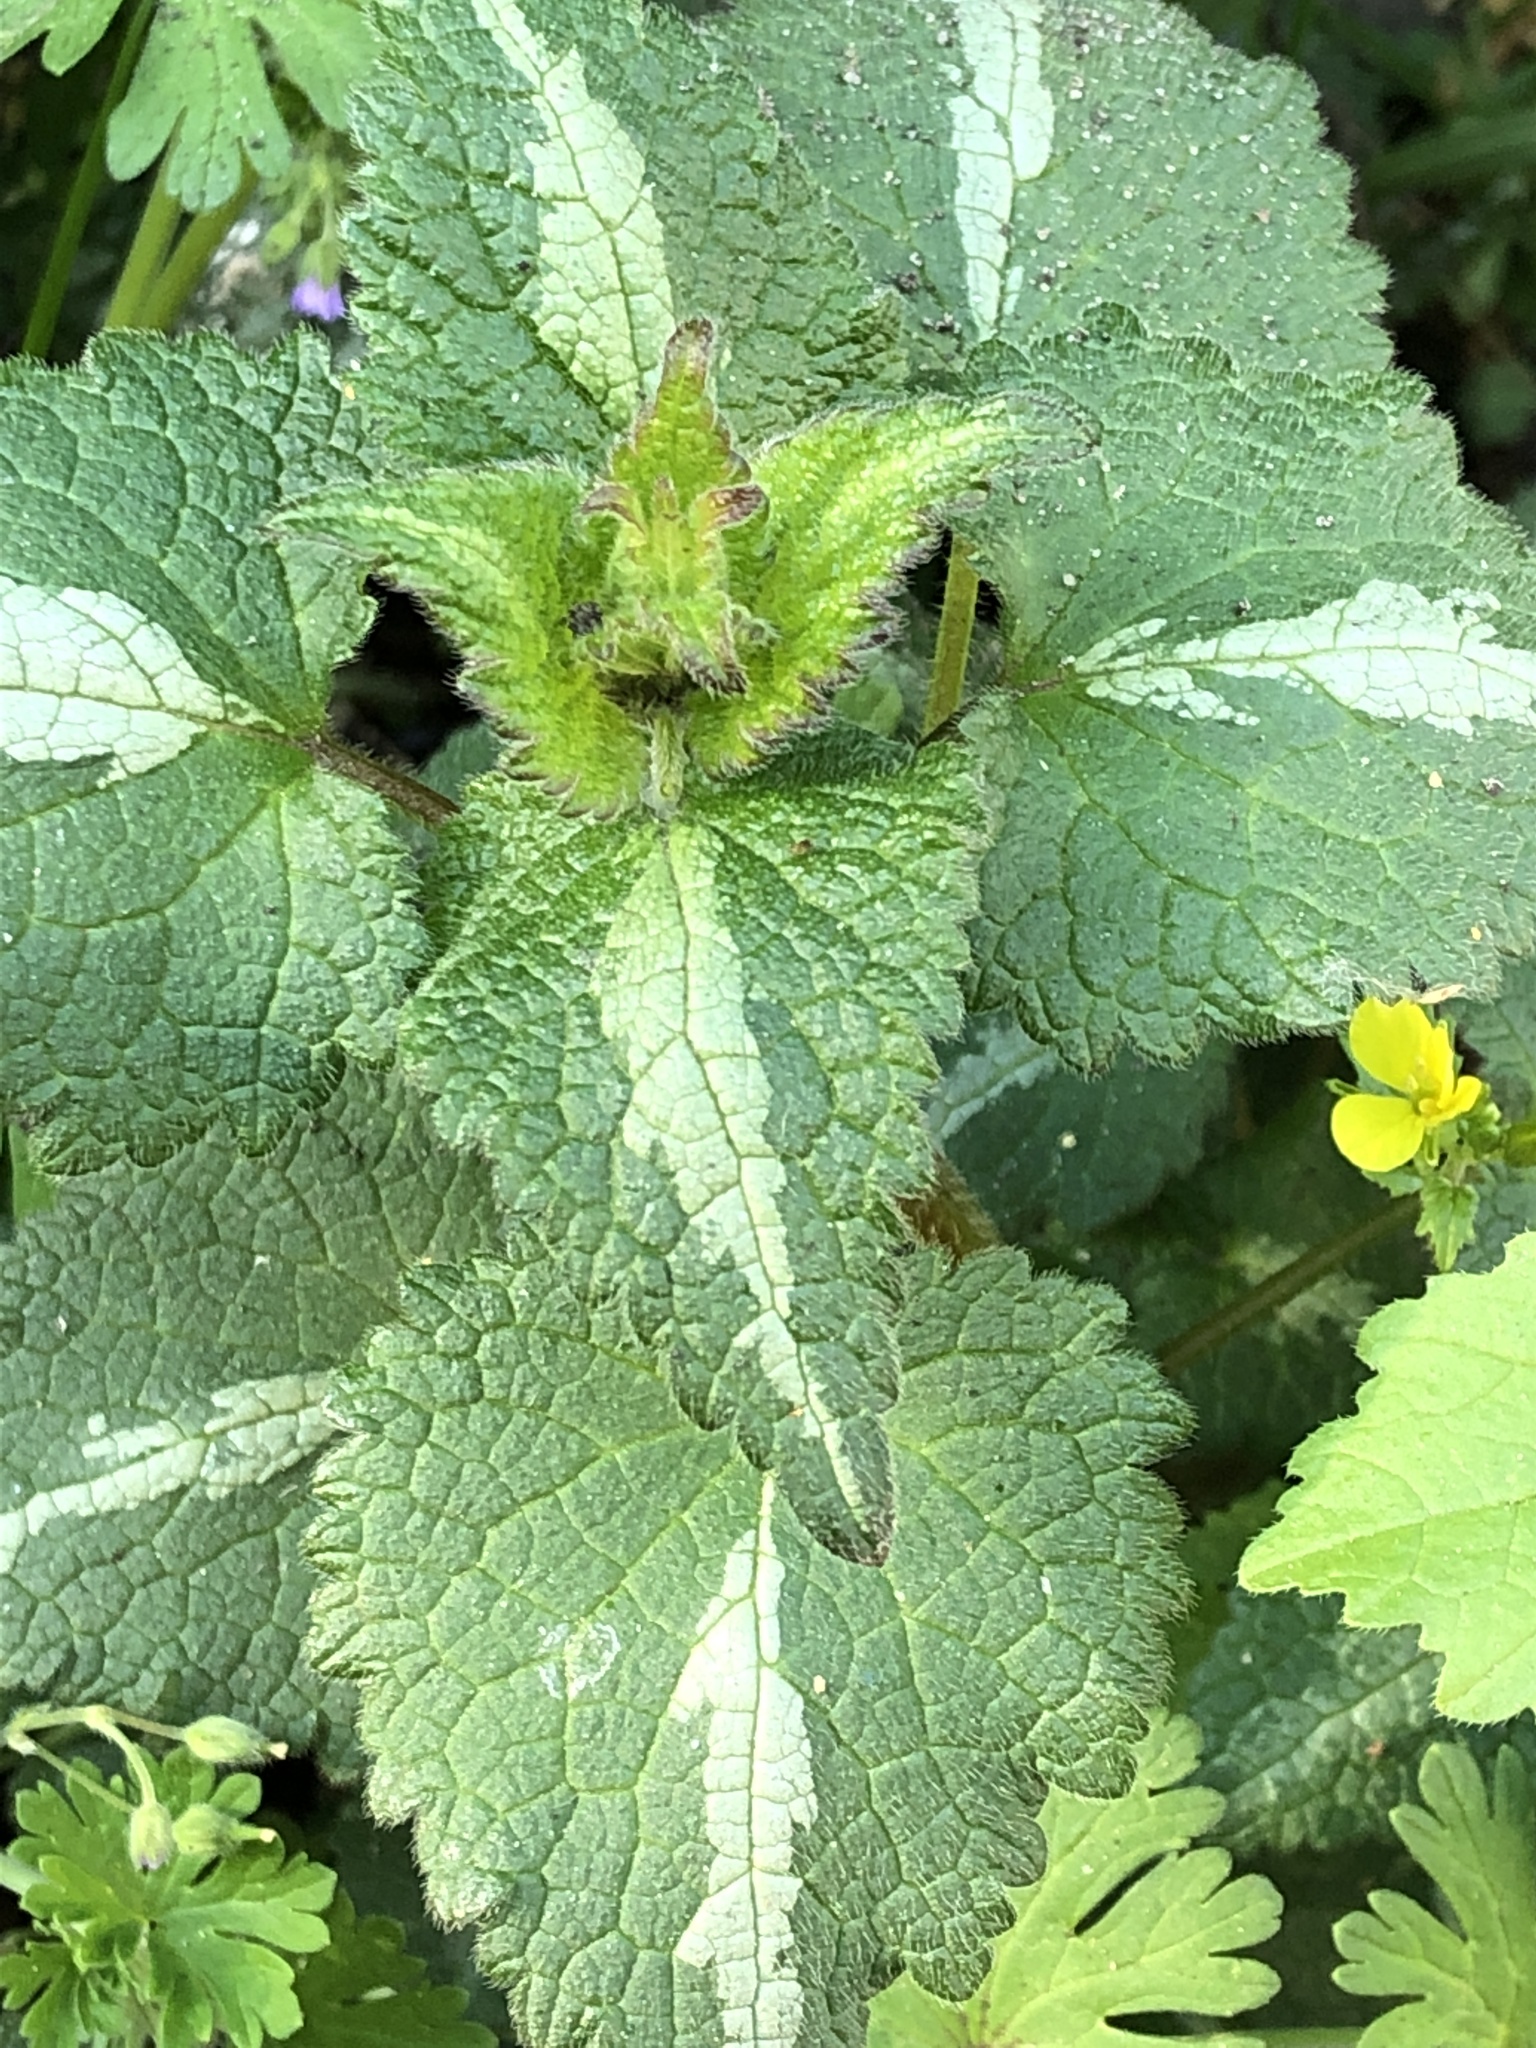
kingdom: Plantae
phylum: Tracheophyta
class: Magnoliopsida
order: Lamiales
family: Lamiaceae
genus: Lamium
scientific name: Lamium maculatum
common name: Spotted dead-nettle
